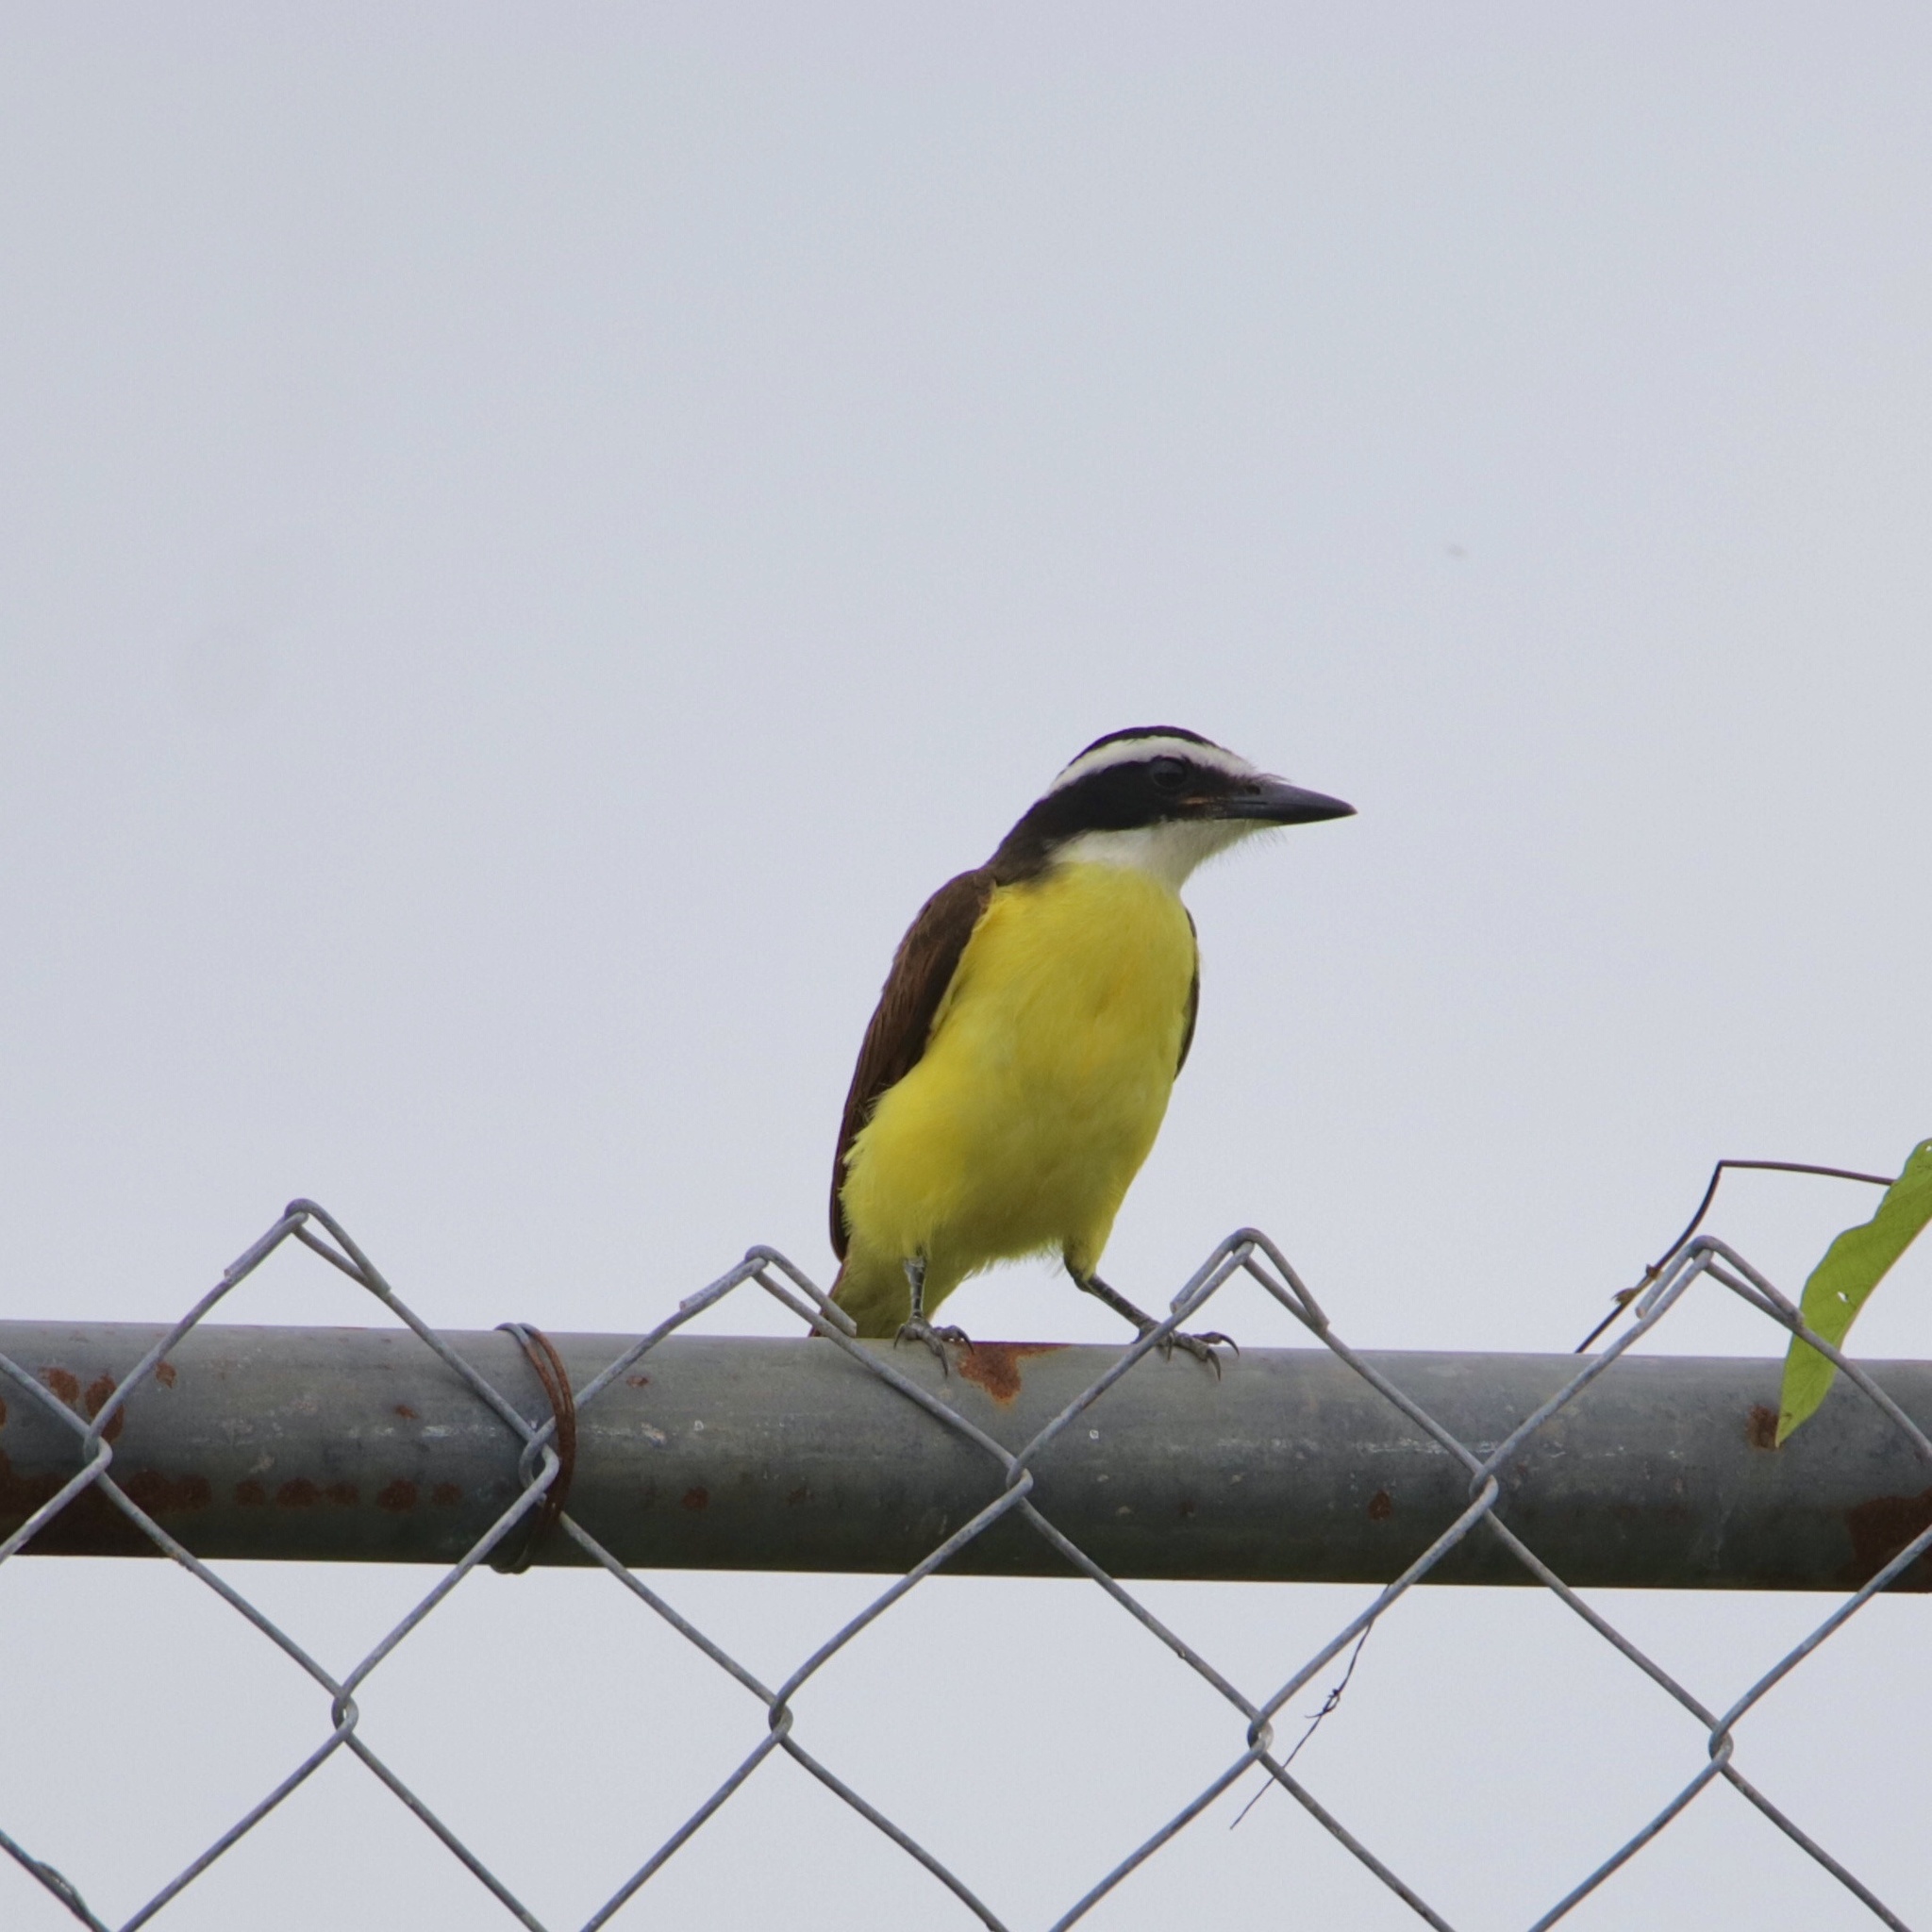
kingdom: Animalia
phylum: Chordata
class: Aves
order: Passeriformes
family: Tyrannidae
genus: Pitangus
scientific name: Pitangus sulphuratus
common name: Great kiskadee
